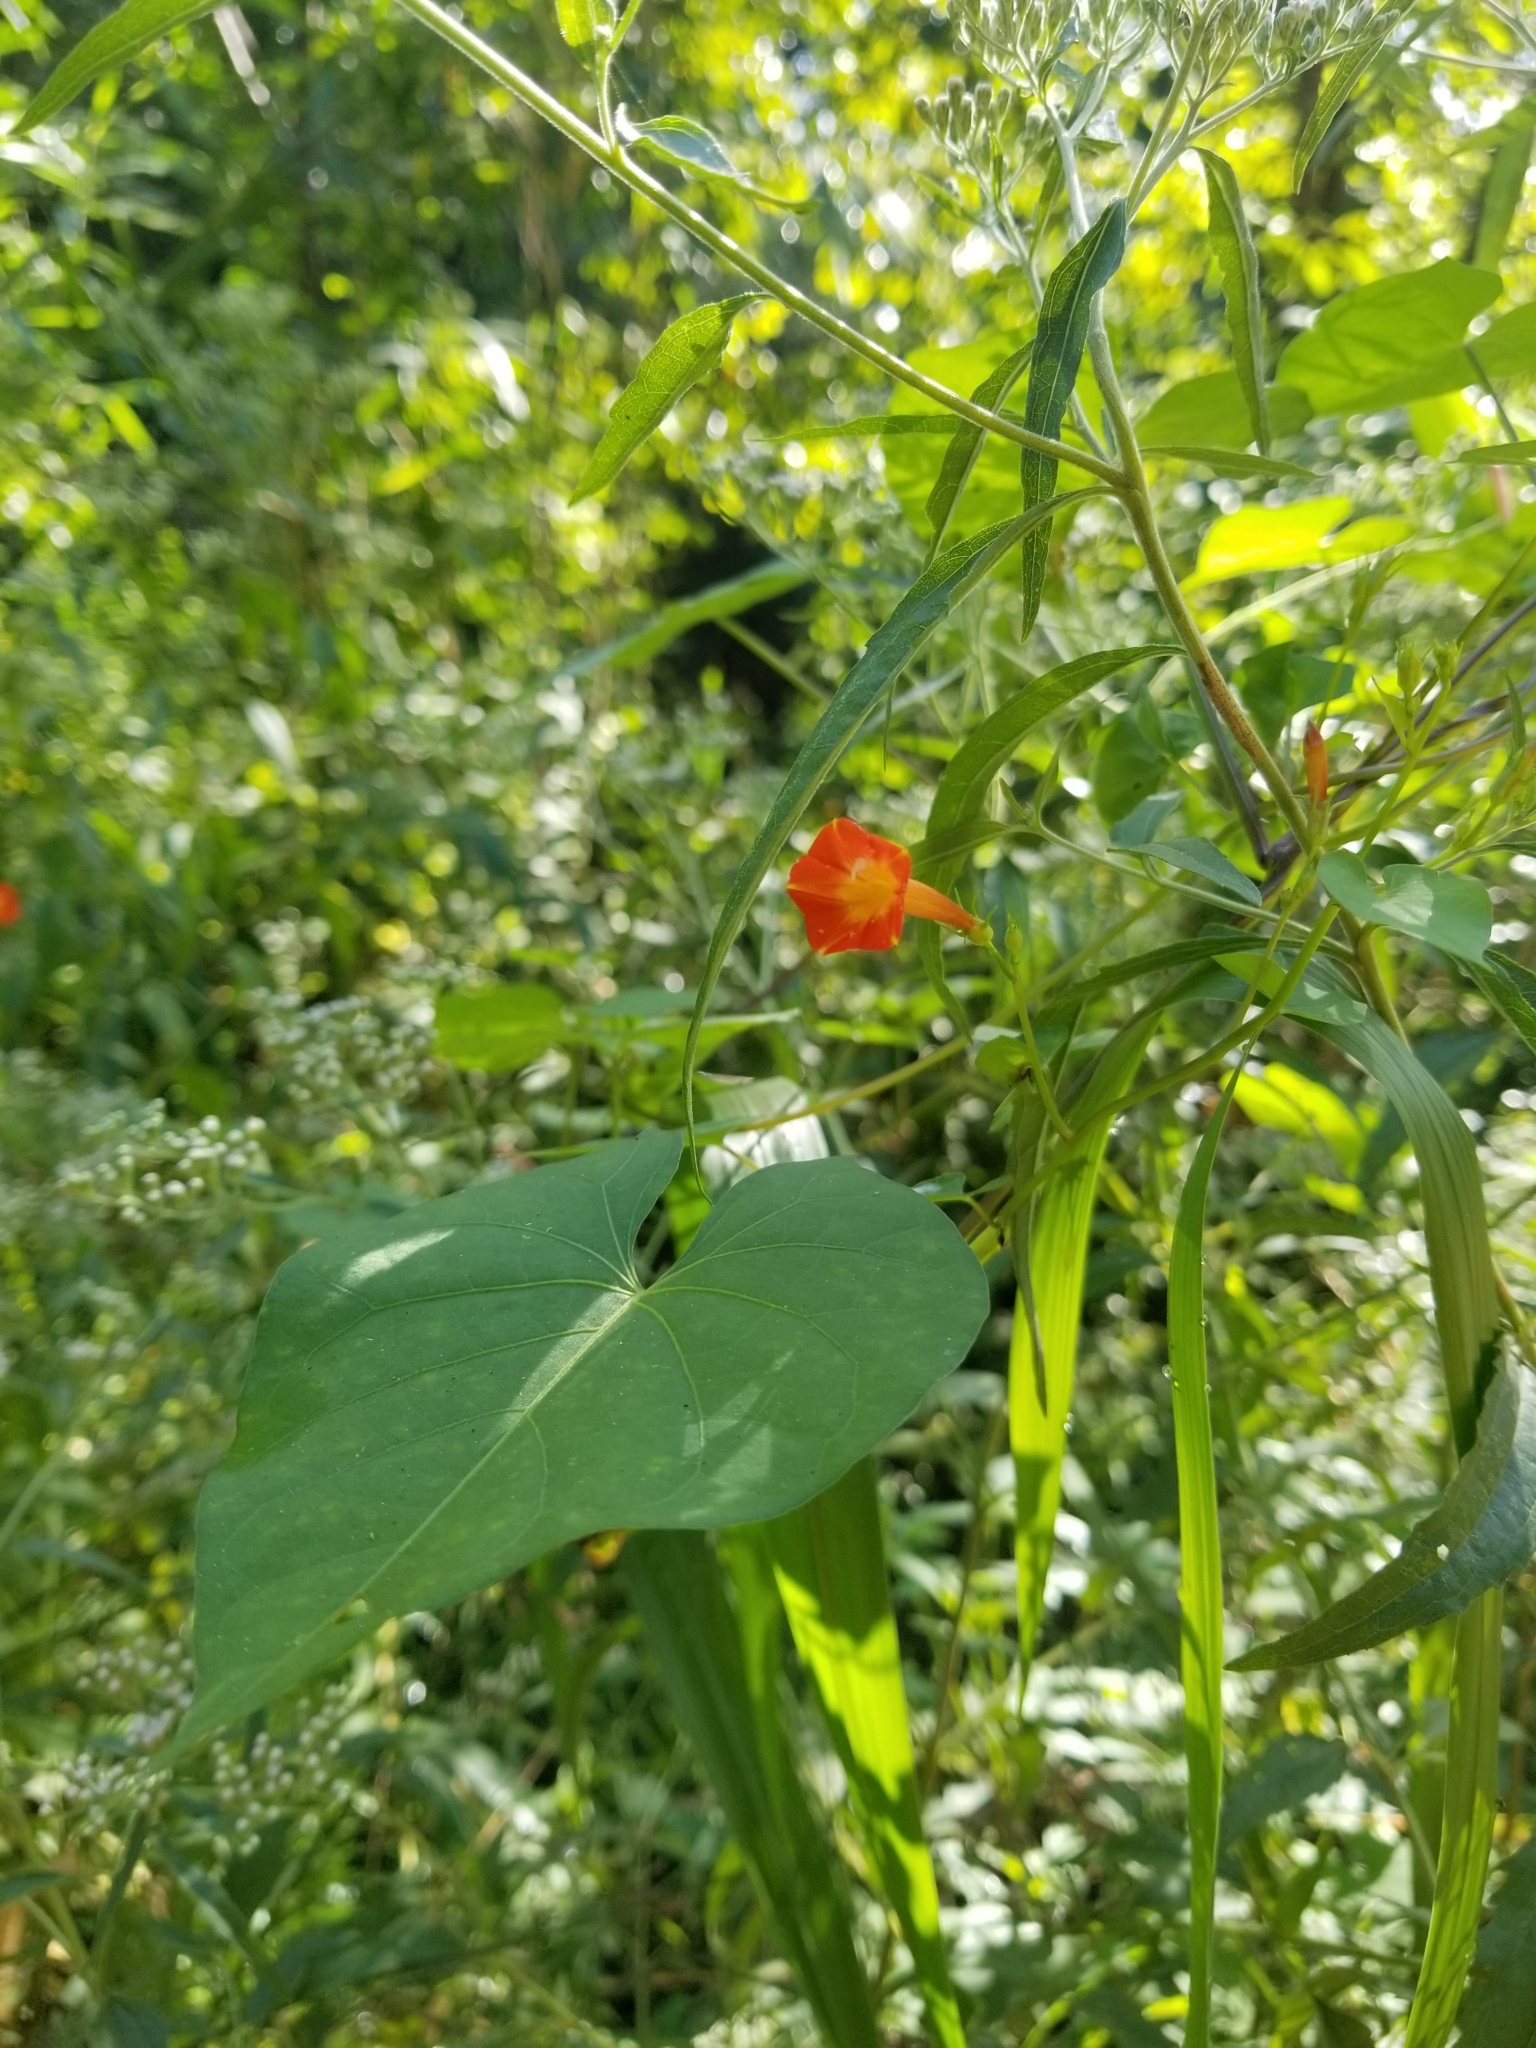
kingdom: Plantae
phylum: Tracheophyta
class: Magnoliopsida
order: Solanales
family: Convolvulaceae
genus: Ipomoea
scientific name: Ipomoea coccinea
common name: Red morning-glory
